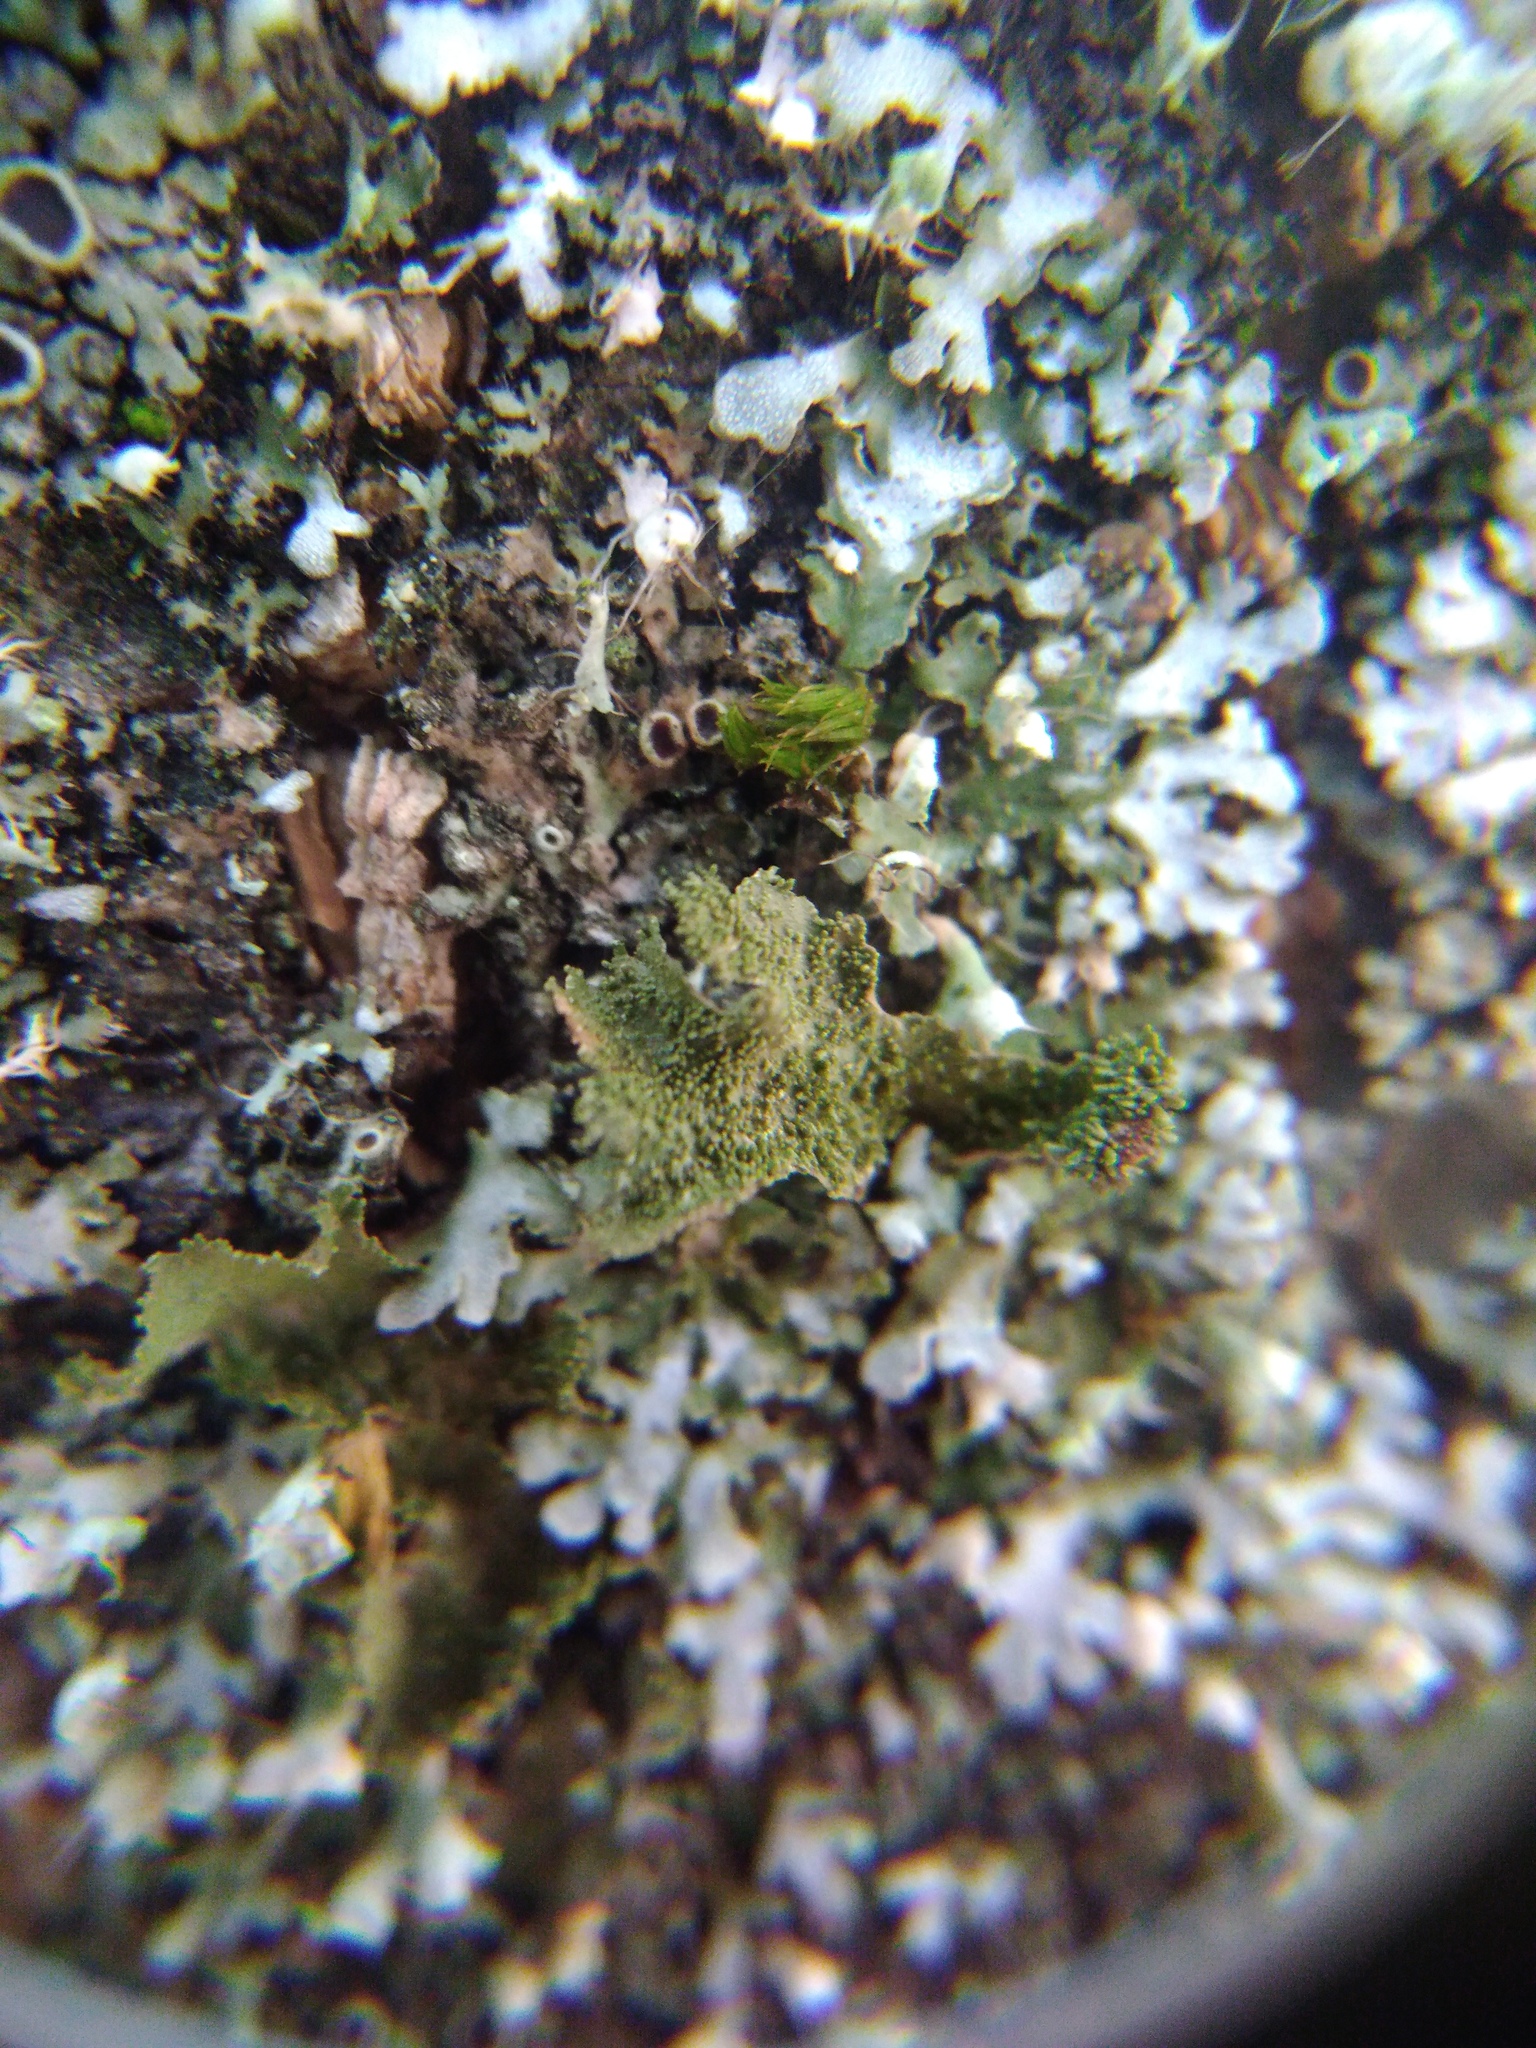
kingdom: Fungi
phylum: Ascomycota
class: Lecanoromycetes
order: Lecanorales
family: Parmeliaceae
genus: Melanohalea
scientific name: Melanohalea exasperatula
